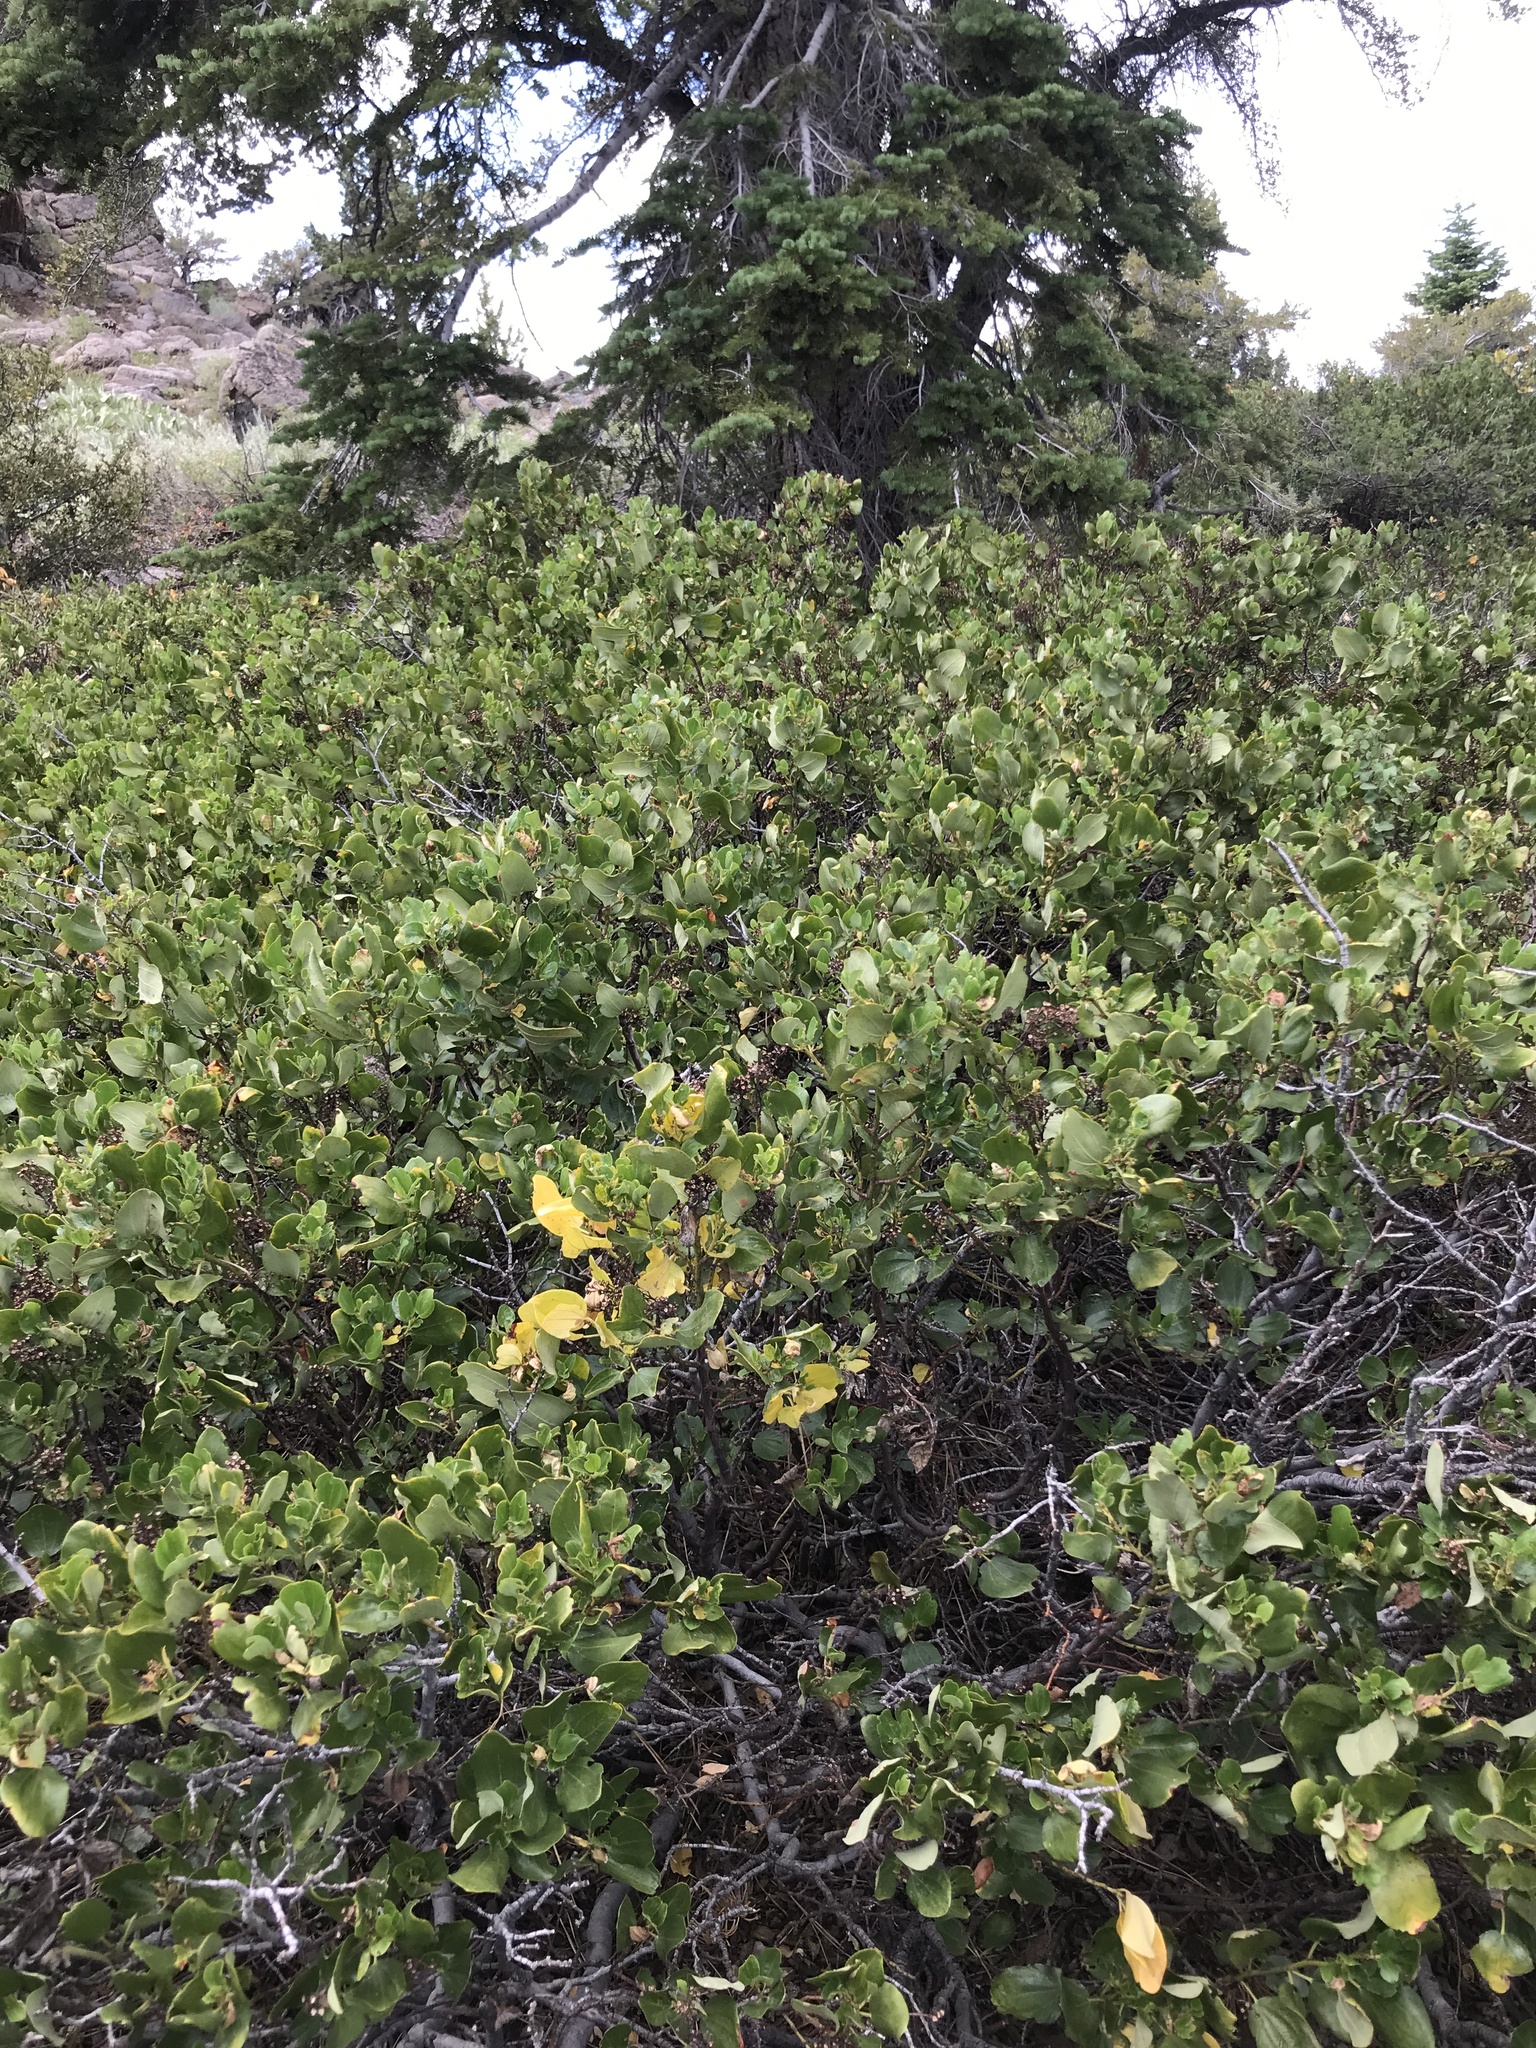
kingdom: Plantae
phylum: Tracheophyta
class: Magnoliopsida
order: Rosales
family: Rhamnaceae
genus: Ceanothus
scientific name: Ceanothus velutinus
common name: Snowbrush
